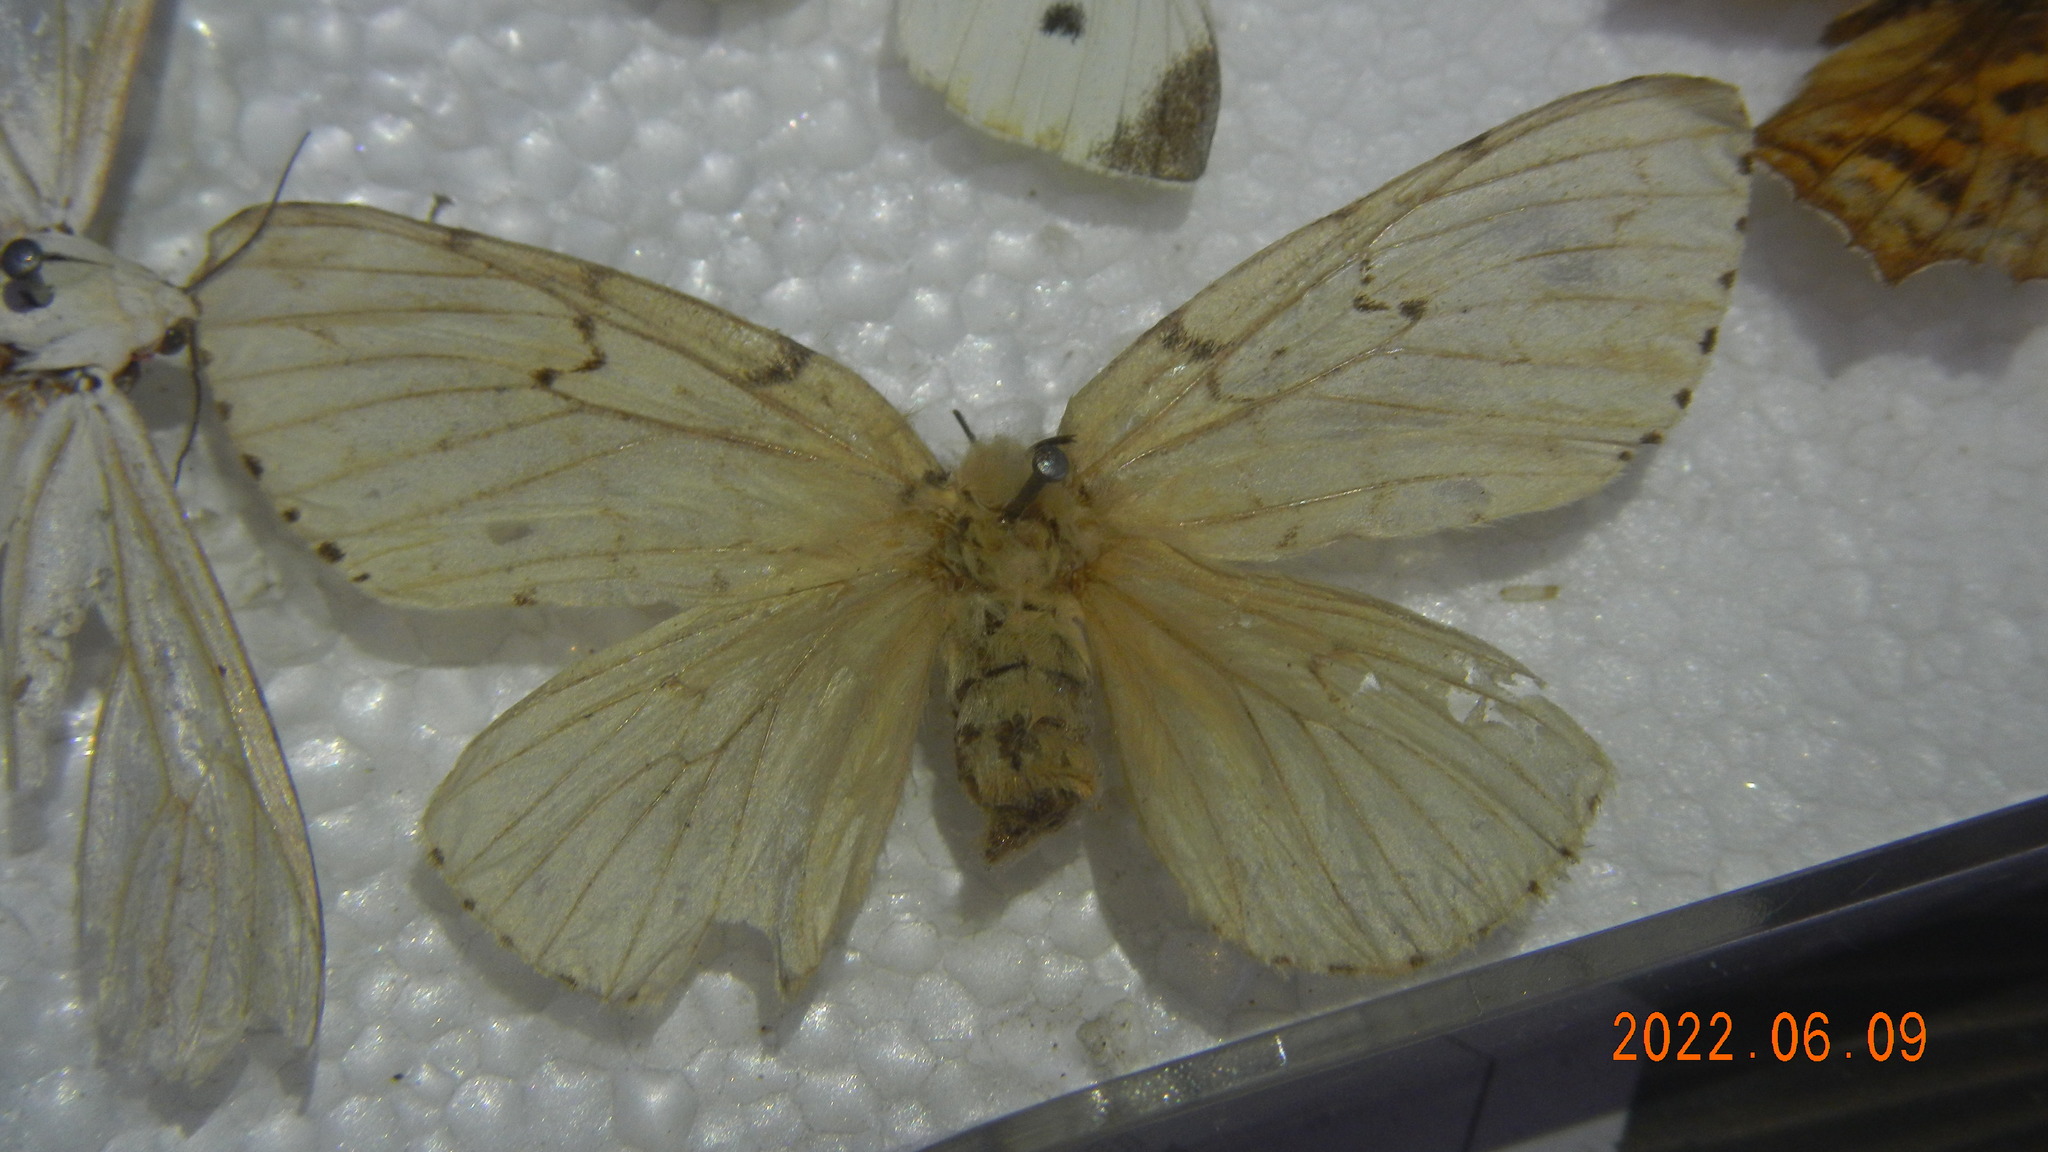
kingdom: Animalia
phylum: Arthropoda
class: Insecta
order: Lepidoptera
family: Erebidae
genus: Lymantria
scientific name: Lymantria dispar
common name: Gypsy moth
